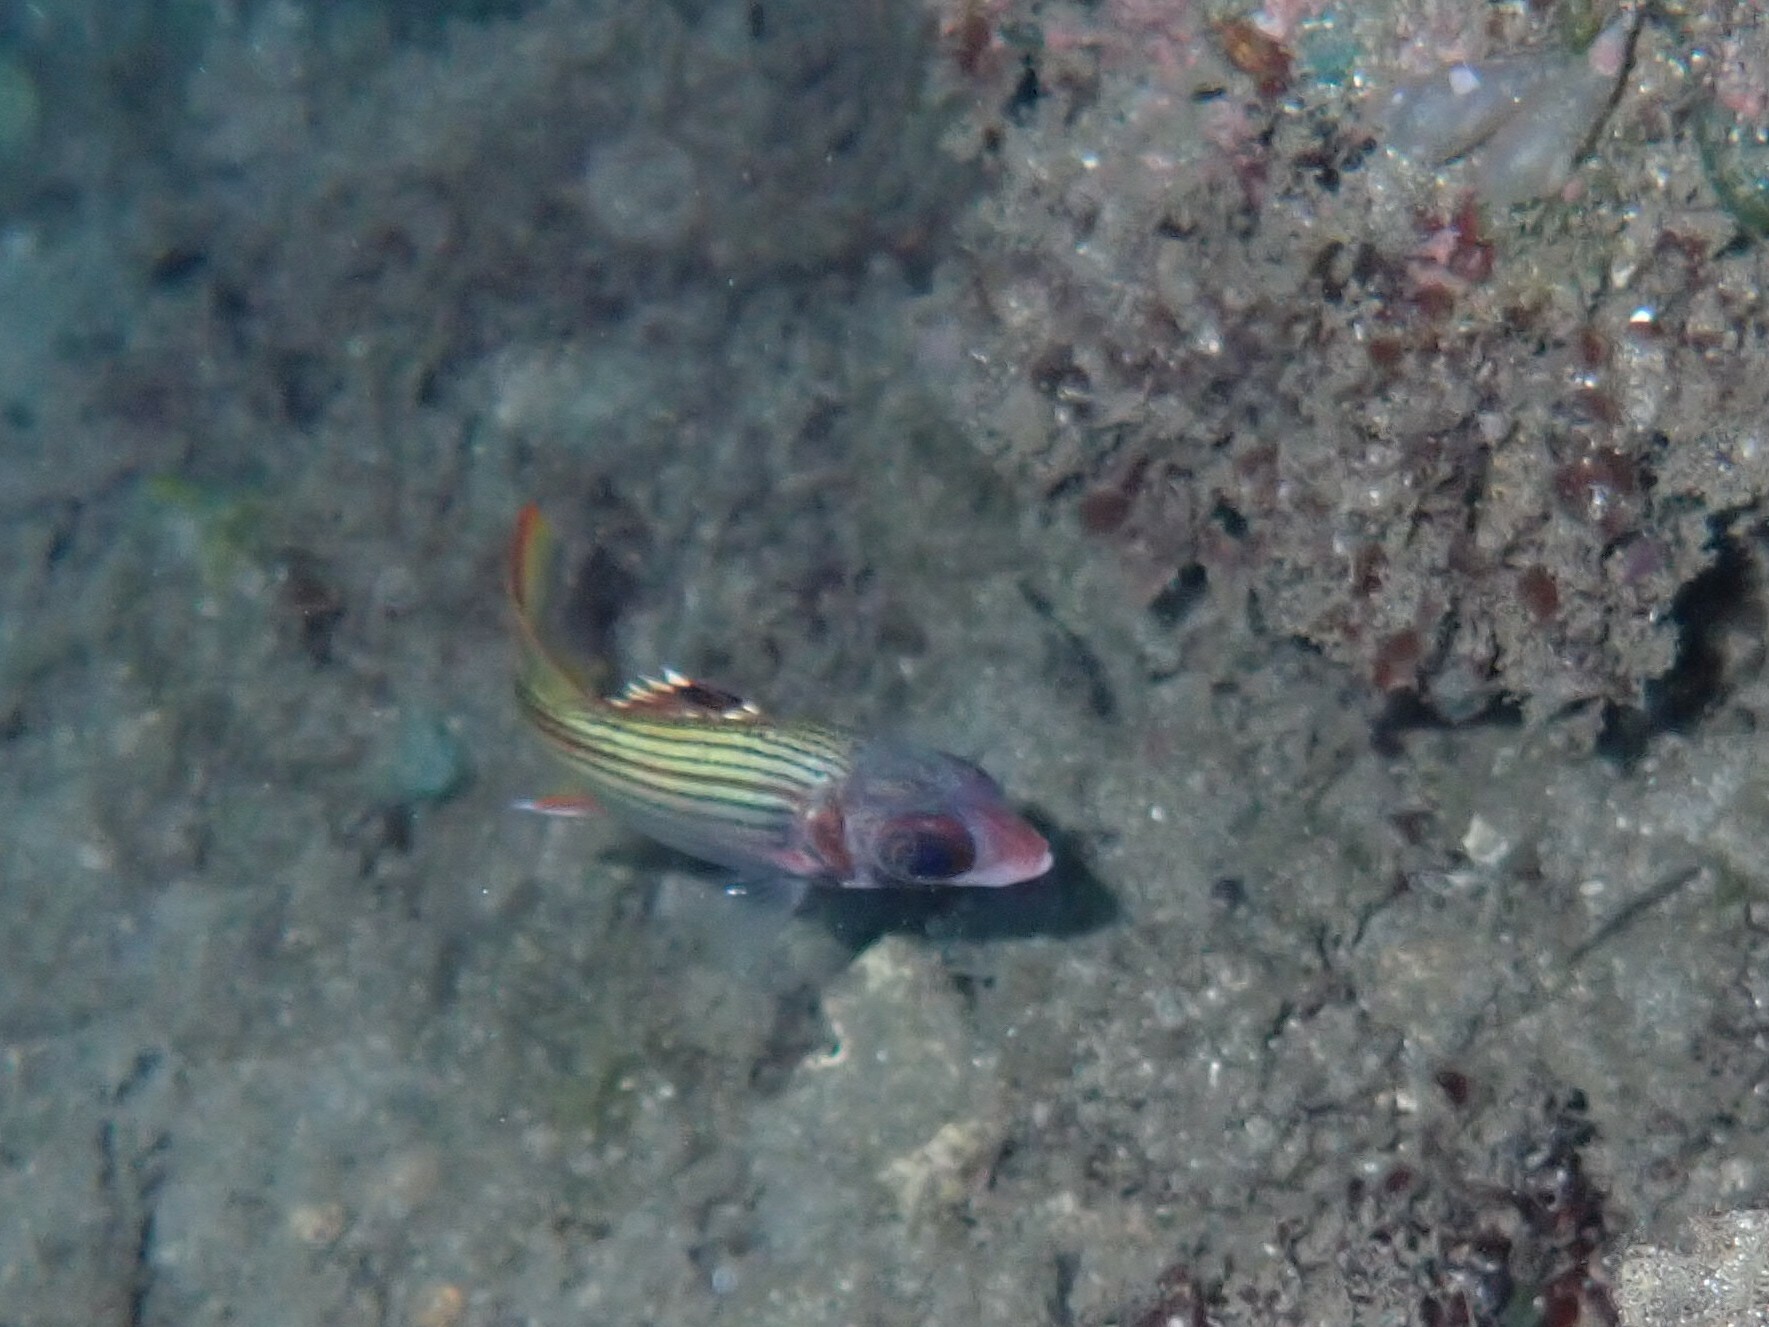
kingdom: Animalia
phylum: Chordata
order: Beryciformes
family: Holocentridae
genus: Neoniphon
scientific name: Neoniphon sammara
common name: Sammara squirrelfish
